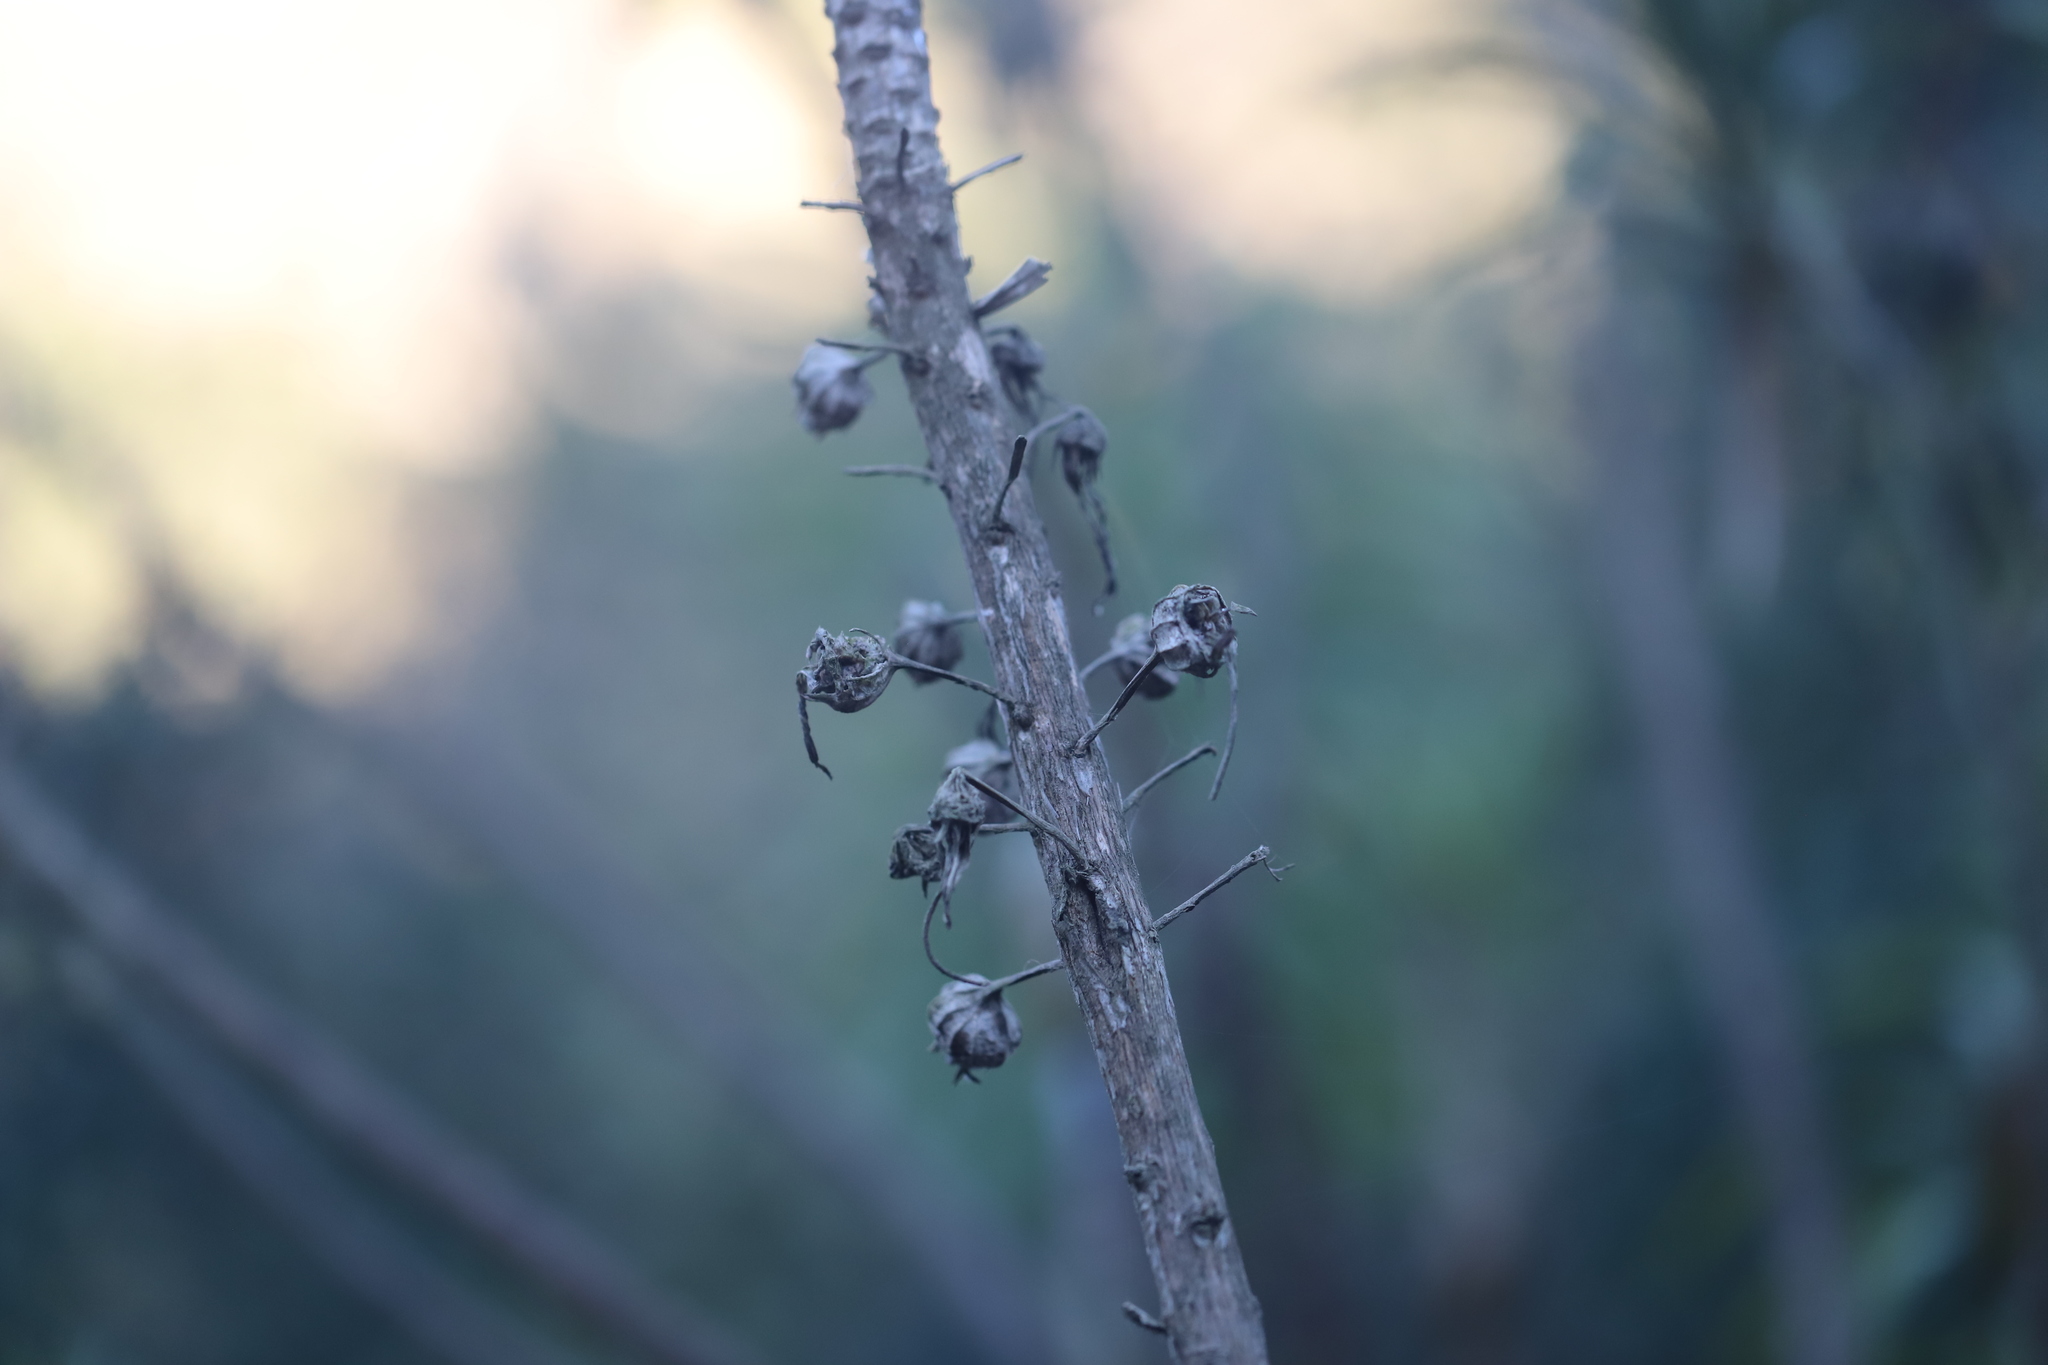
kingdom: Plantae
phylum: Tracheophyta
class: Magnoliopsida
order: Asterales
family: Campanulaceae
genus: Lobelia
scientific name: Lobelia excelsa
